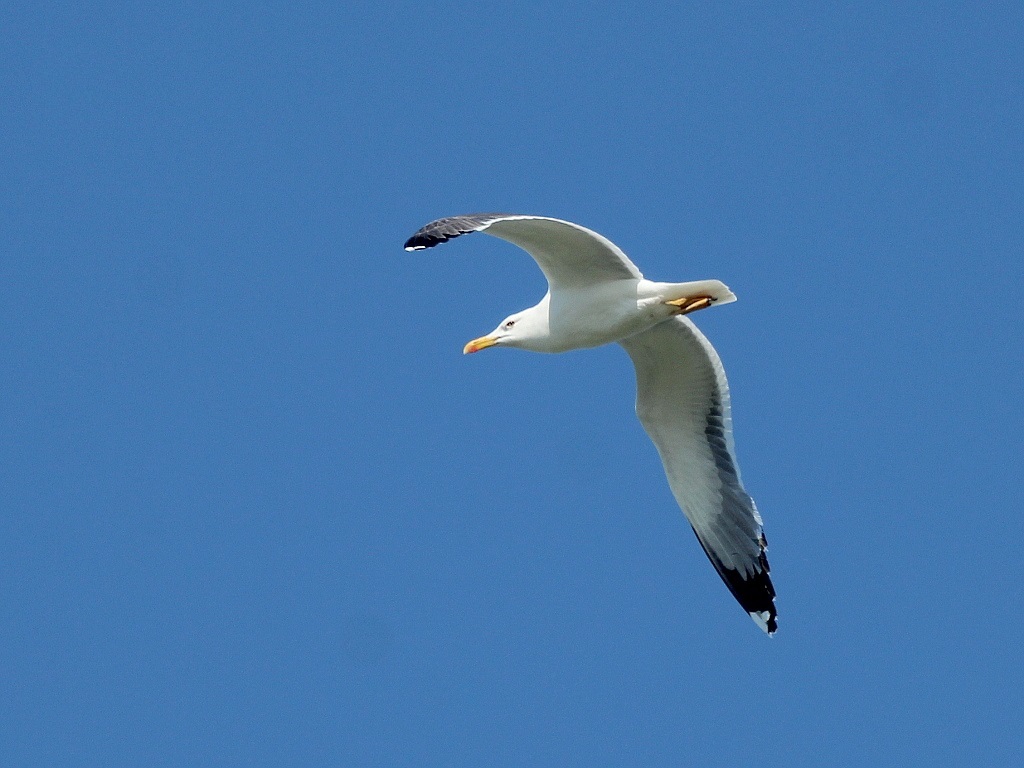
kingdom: Animalia
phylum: Chordata
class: Aves
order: Charadriiformes
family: Laridae
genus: Larus
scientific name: Larus fuscus
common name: Lesser black-backed gull
